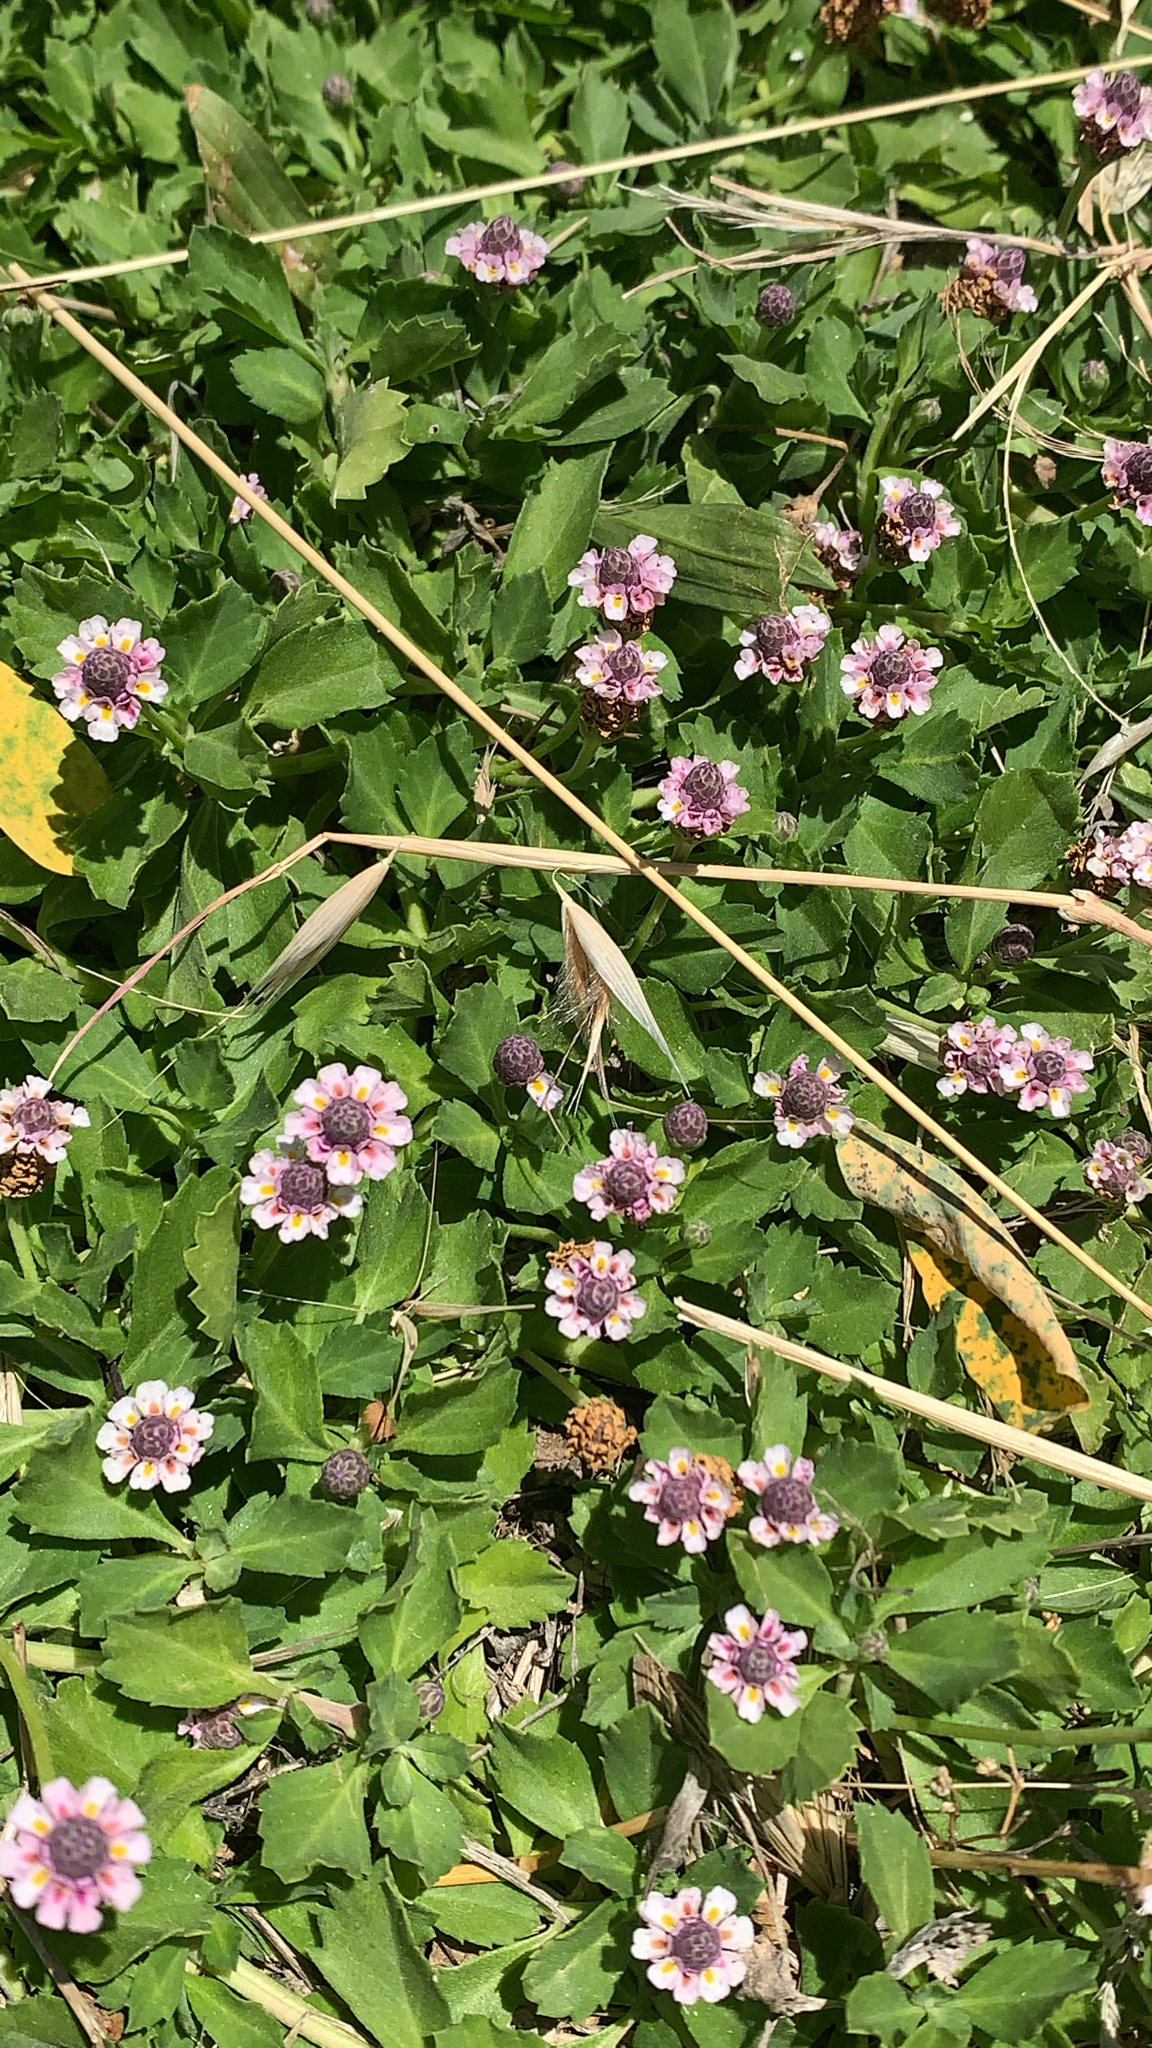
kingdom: Plantae
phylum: Tracheophyta
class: Magnoliopsida
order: Lamiales
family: Verbenaceae
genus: Phyla
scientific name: Phyla nodiflora
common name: Frogfruit
